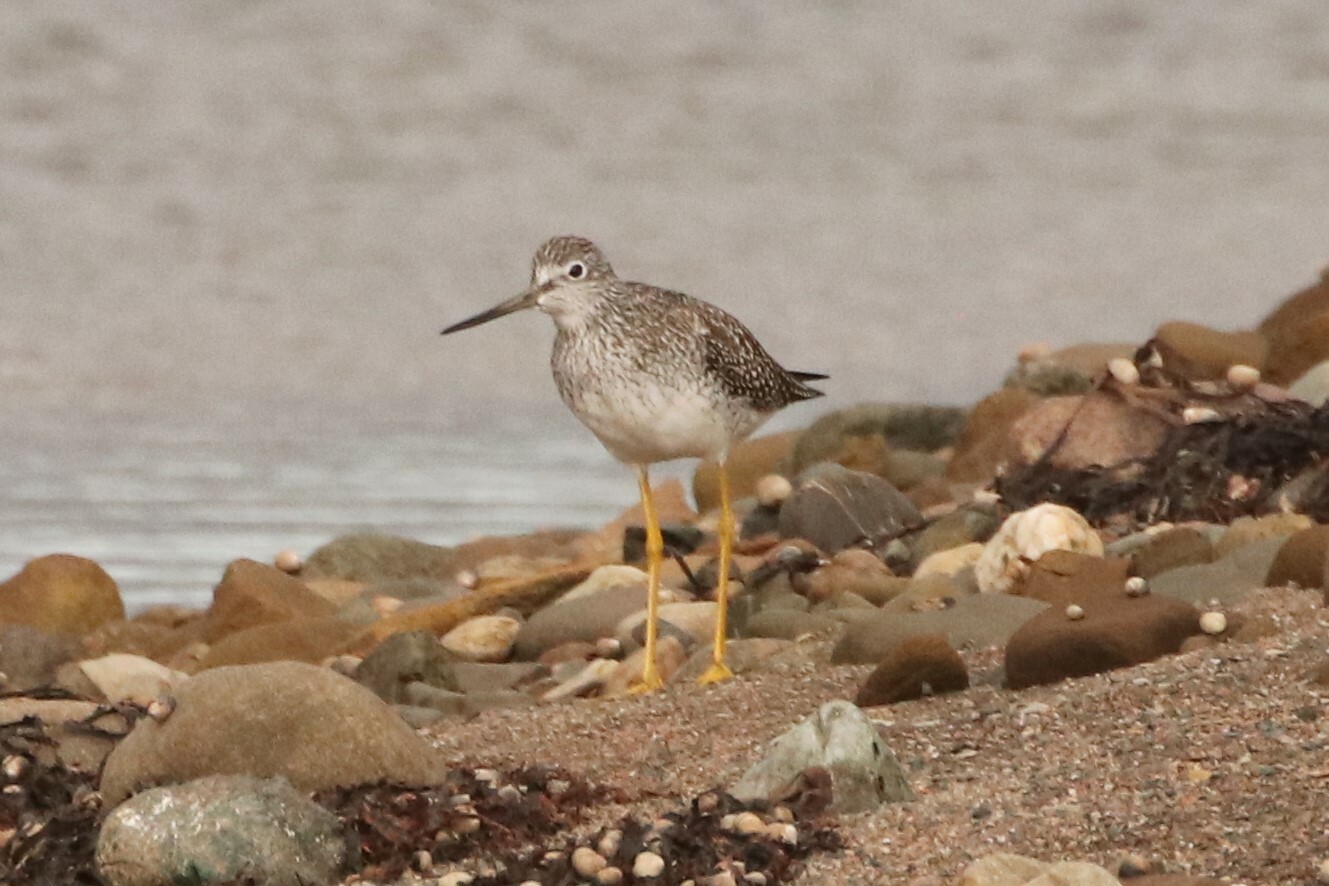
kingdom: Animalia
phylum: Chordata
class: Aves
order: Charadriiformes
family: Scolopacidae
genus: Tringa
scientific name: Tringa melanoleuca
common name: Greater yellowlegs
